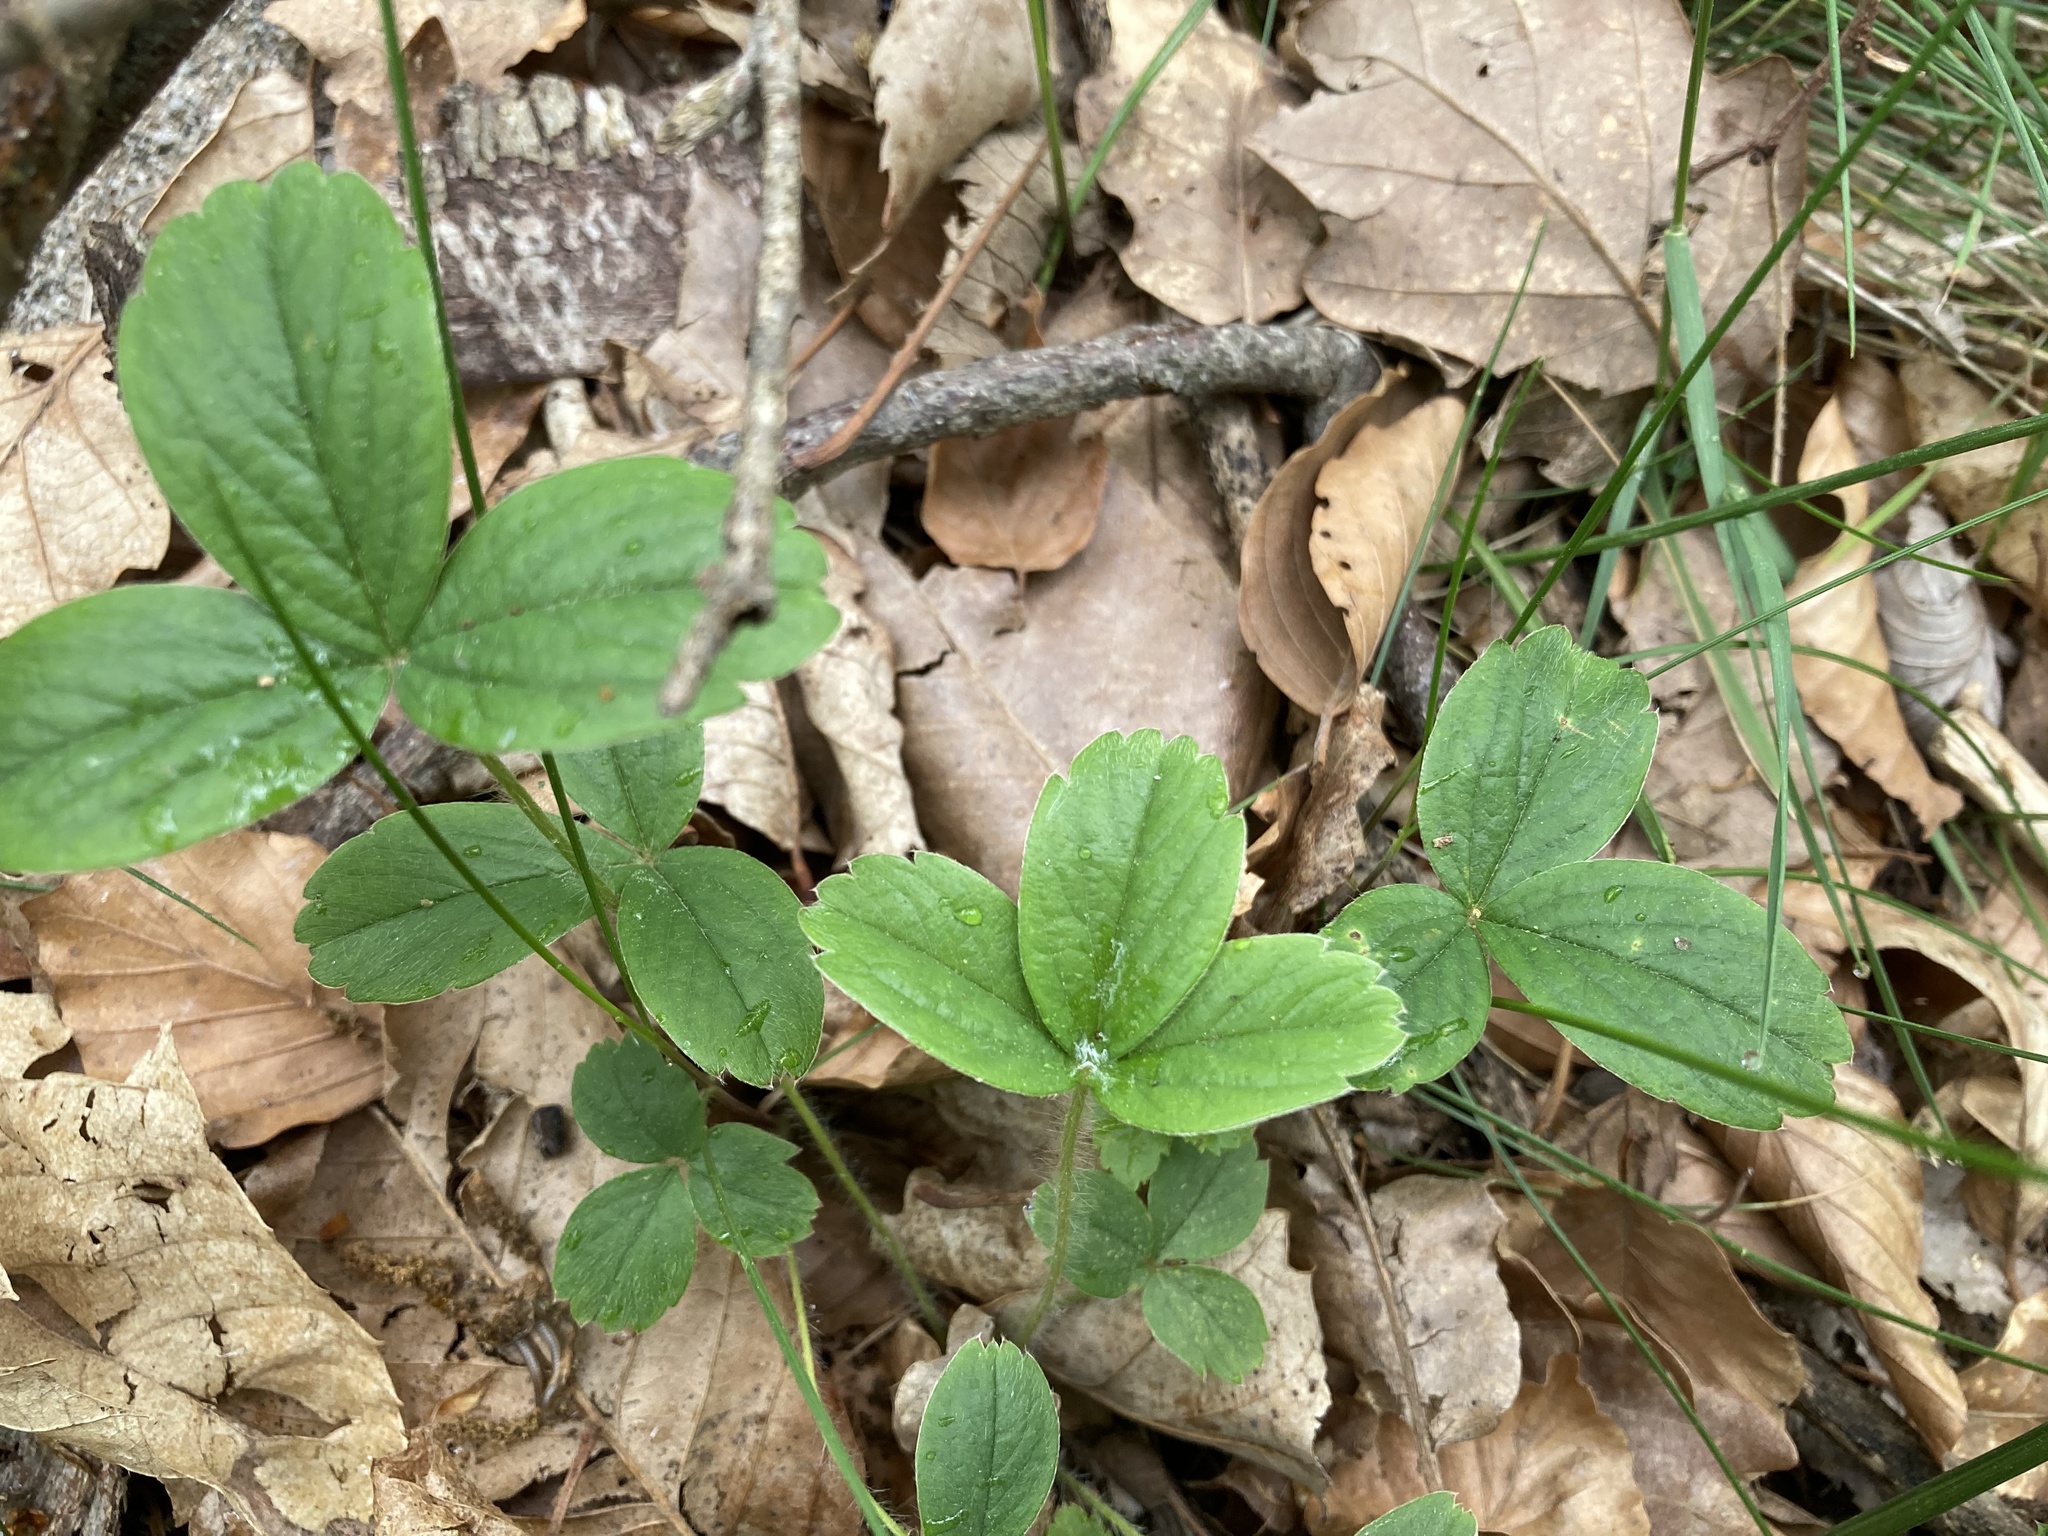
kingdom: Plantae
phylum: Tracheophyta
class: Magnoliopsida
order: Rosales
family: Rosaceae
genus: Potentilla
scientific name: Potentilla montana
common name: Mountain cinquefoil
